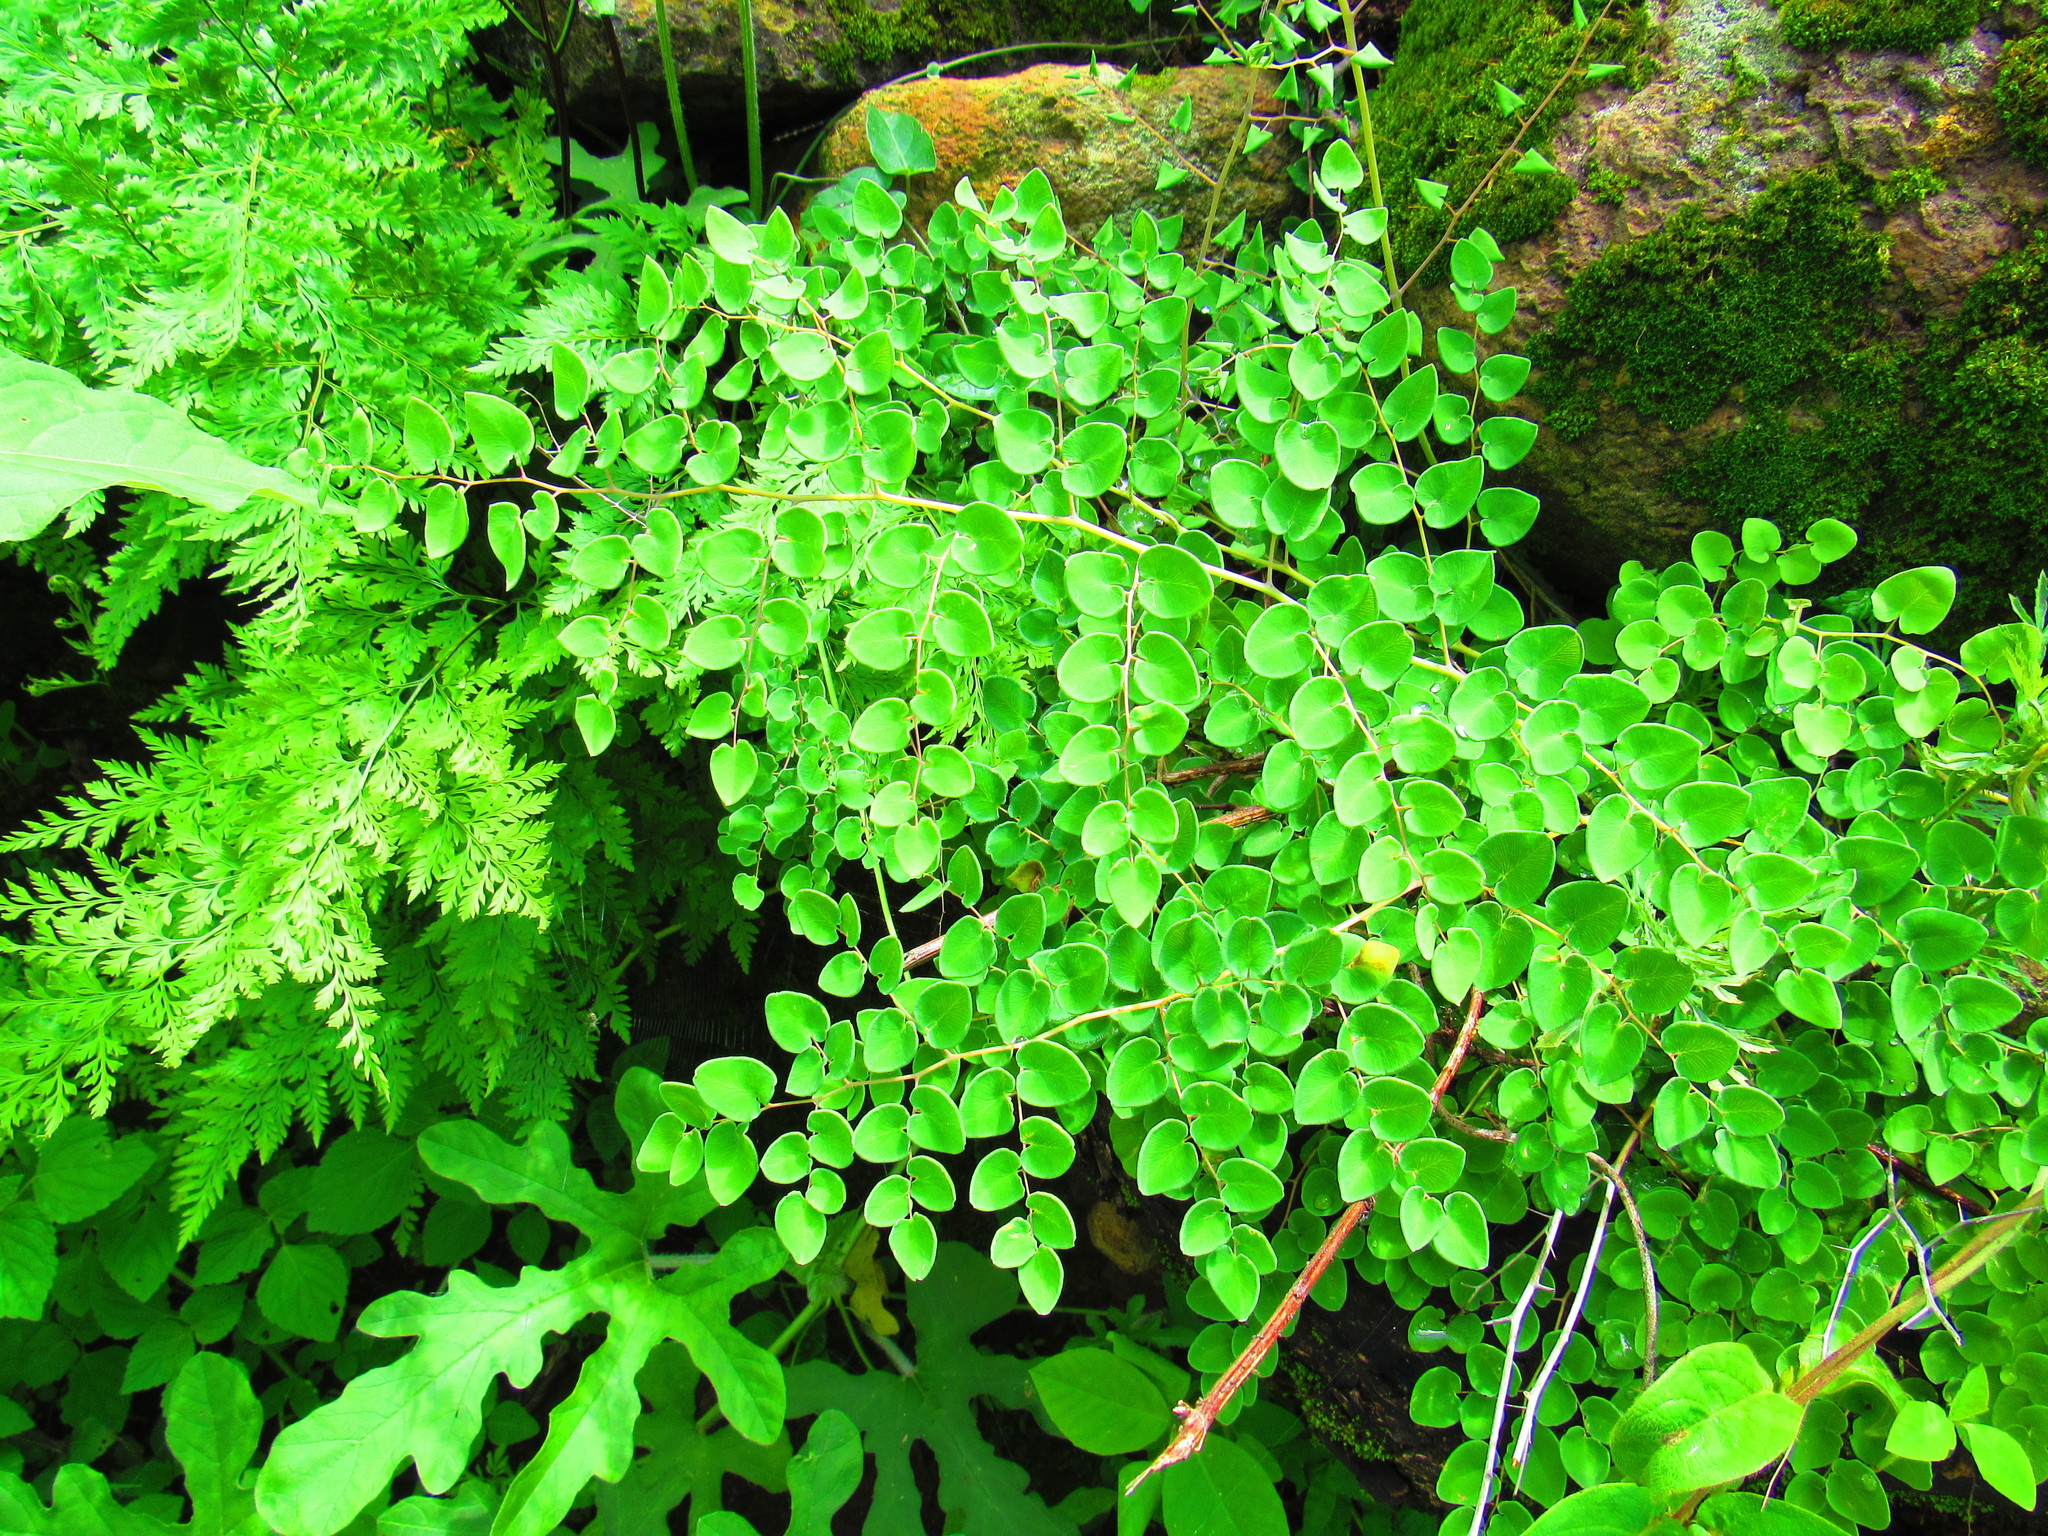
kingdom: Plantae
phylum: Tracheophyta
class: Polypodiopsida
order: Polypodiales
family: Pteridaceae
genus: Pellaea
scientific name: Pellaea cordifolia
